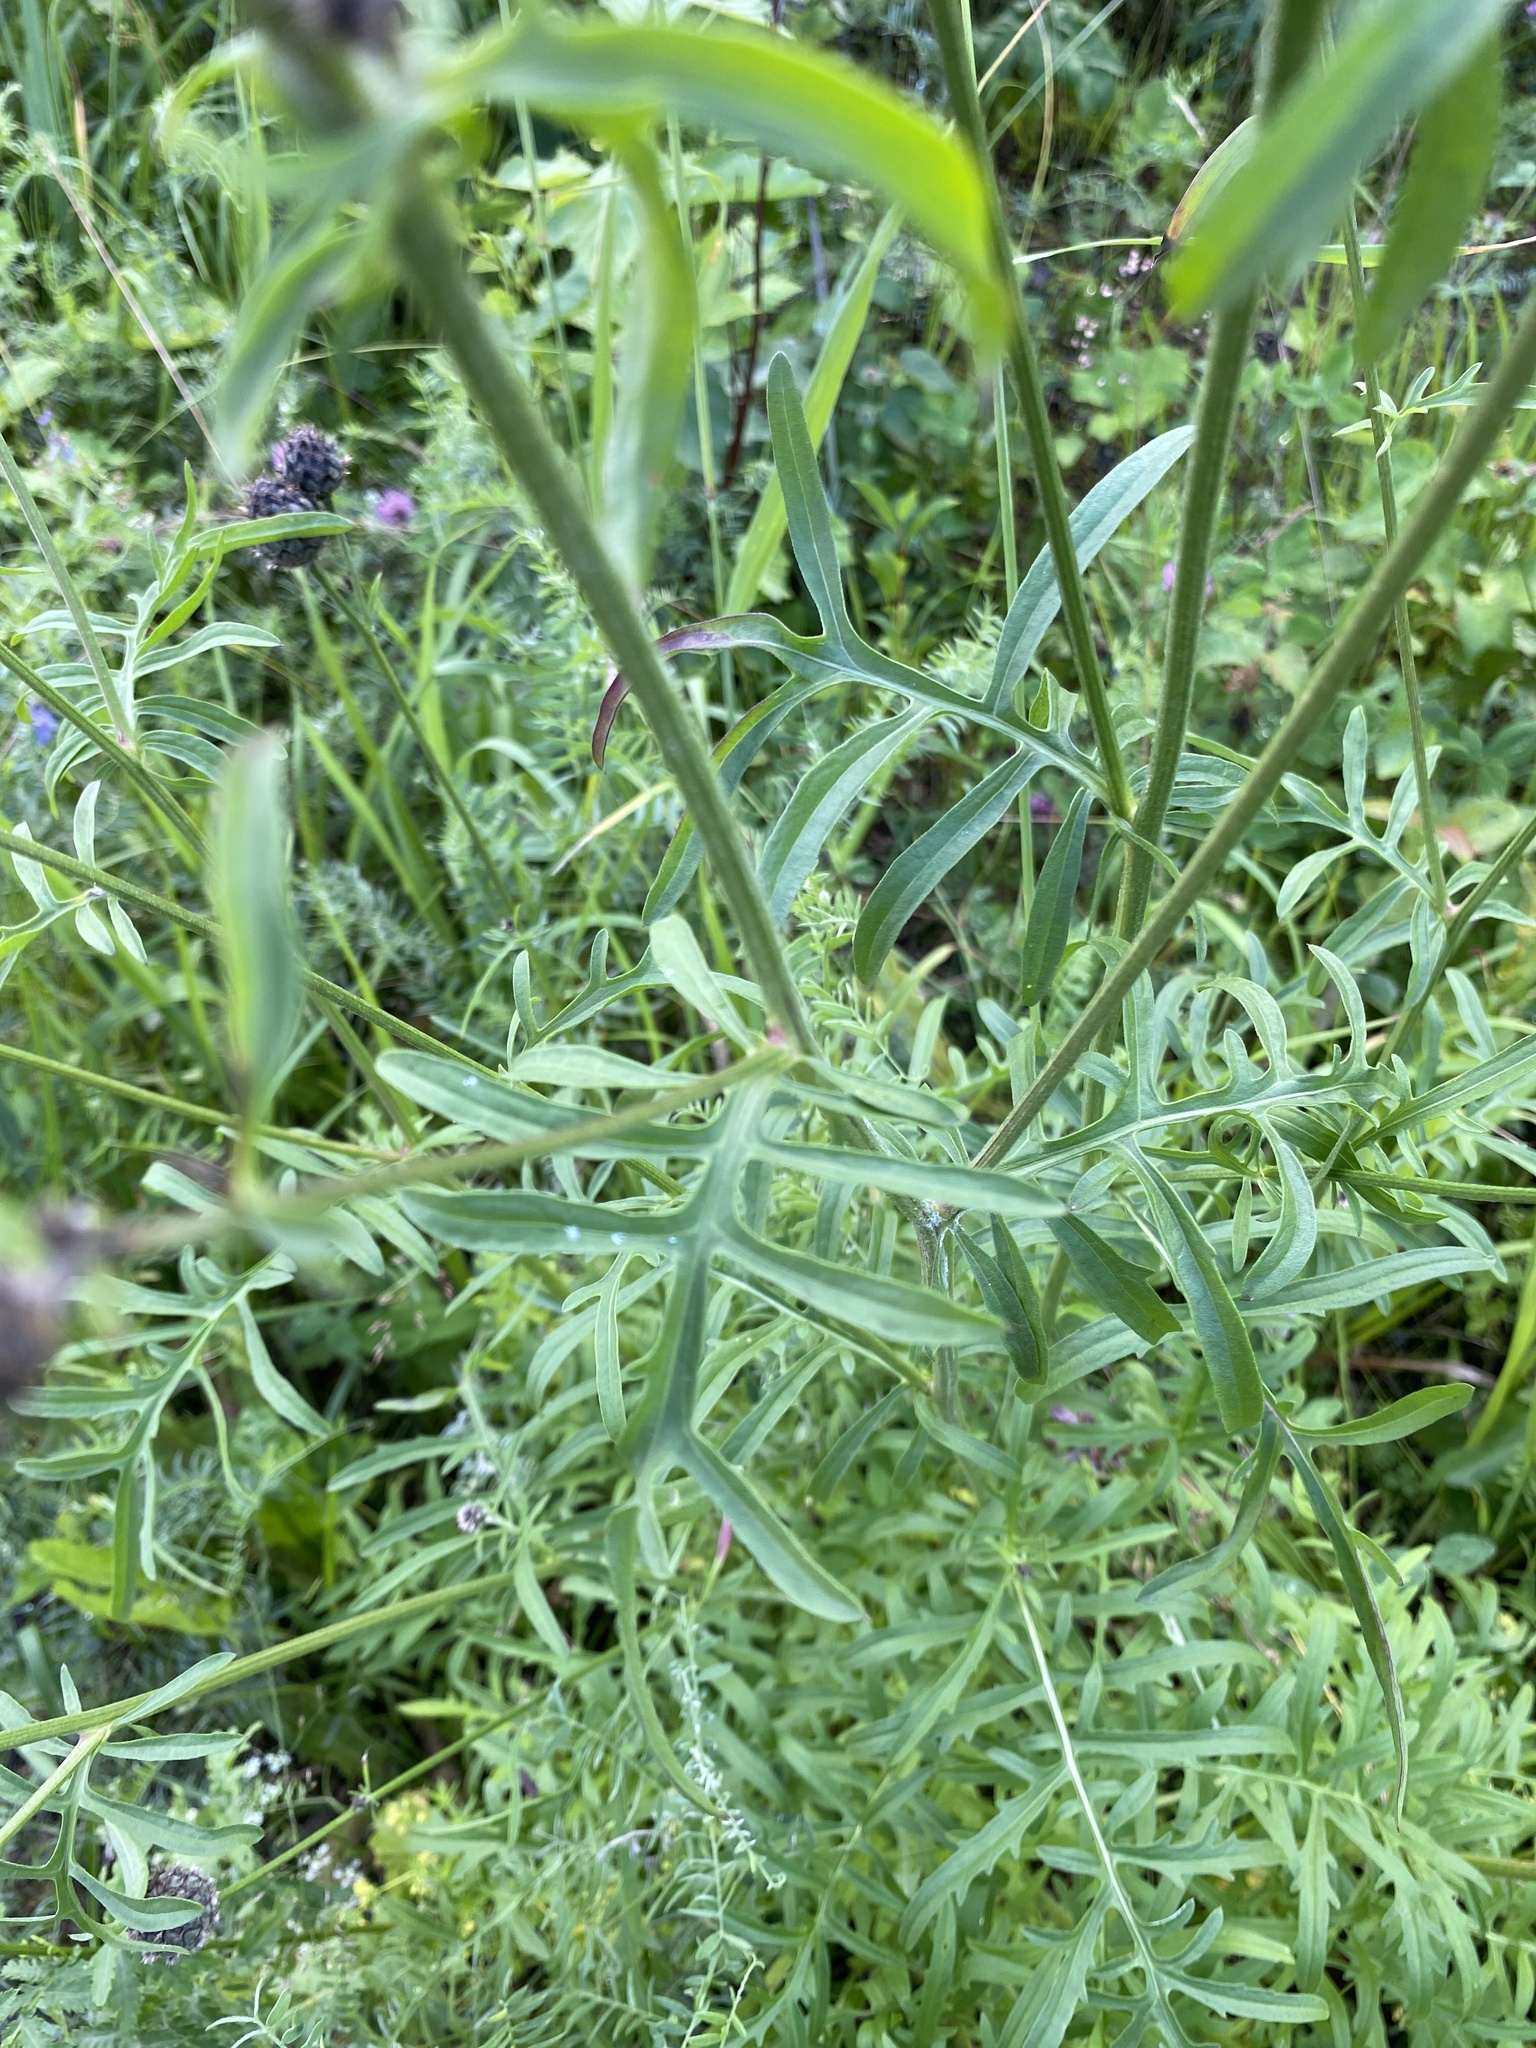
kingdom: Plantae
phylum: Tracheophyta
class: Magnoliopsida
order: Asterales
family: Asteraceae
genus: Centaurea
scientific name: Centaurea scabiosa
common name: Greater knapweed
